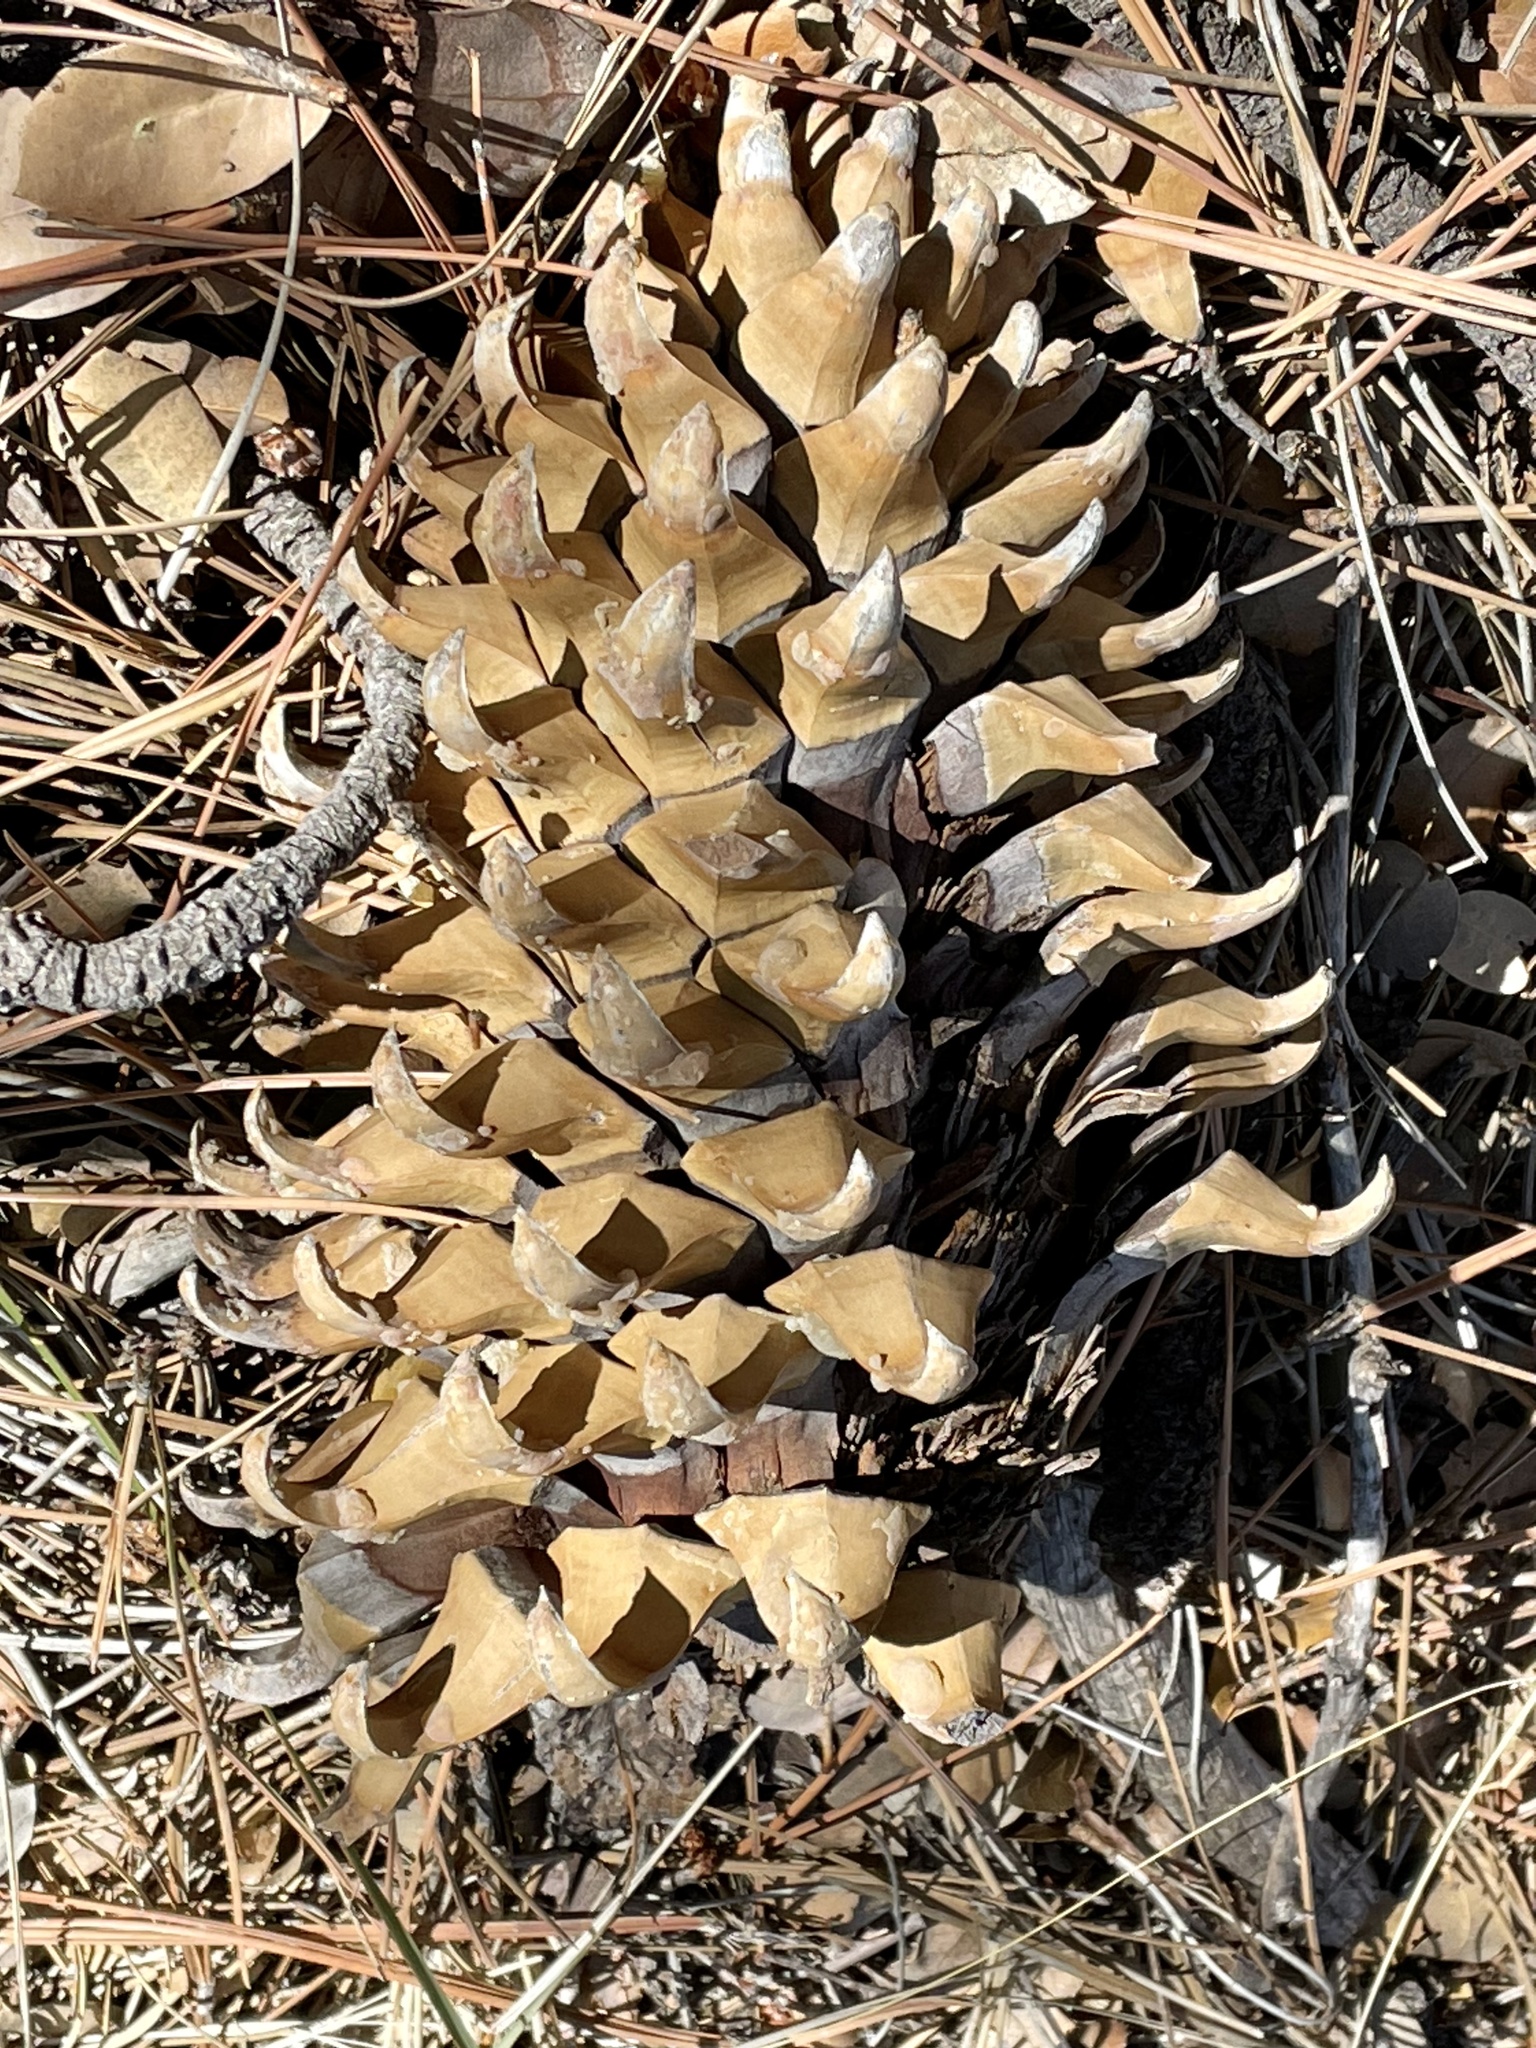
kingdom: Plantae
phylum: Tracheophyta
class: Pinopsida
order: Pinales
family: Pinaceae
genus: Pinus
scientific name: Pinus coulteri
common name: Coulter pine
